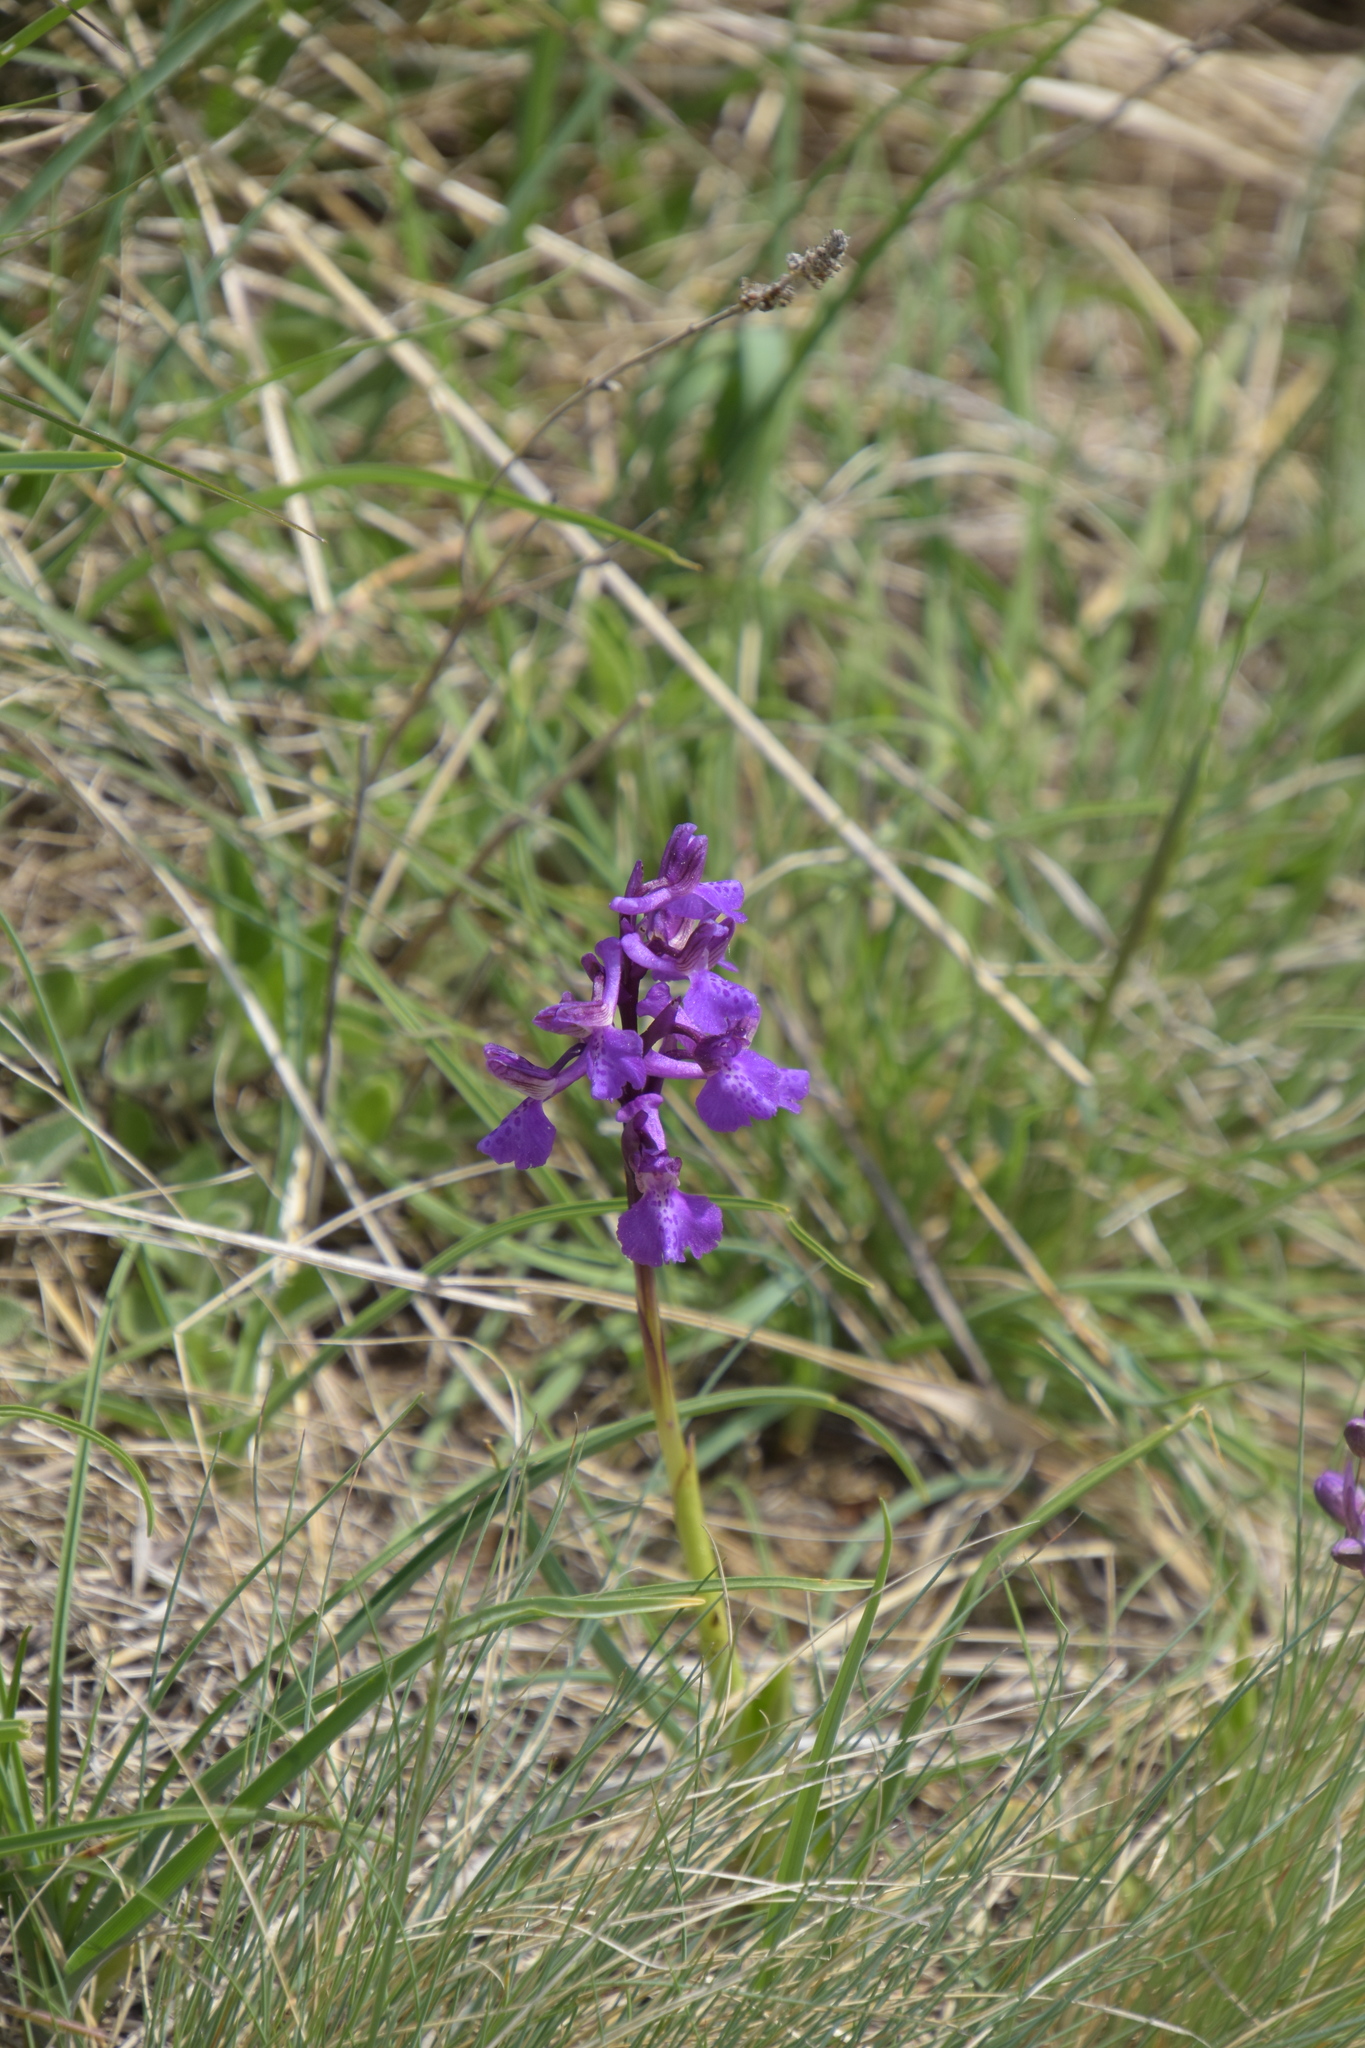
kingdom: Plantae
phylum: Tracheophyta
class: Liliopsida
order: Asparagales
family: Orchidaceae
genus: Anacamptis
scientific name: Anacamptis morio
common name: Green-winged orchid
